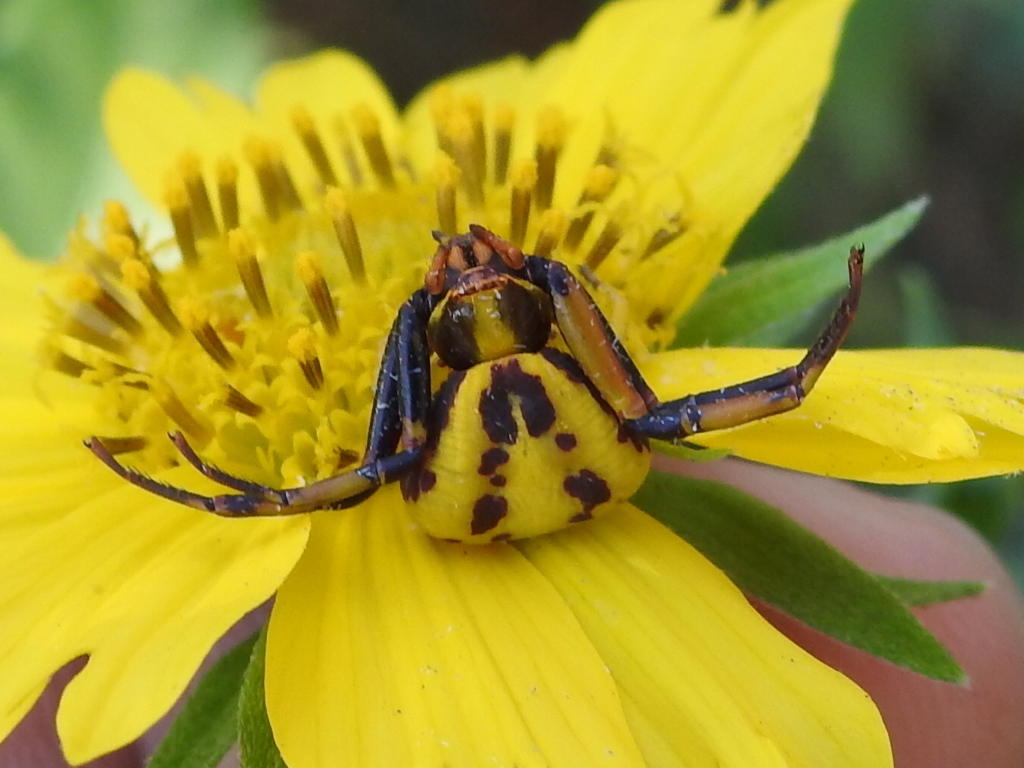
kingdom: Animalia
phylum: Arthropoda
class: Arachnida
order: Araneae
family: Thomisidae
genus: Misumenoides
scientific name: Misumenoides formosipes
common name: White-banded crab spider
